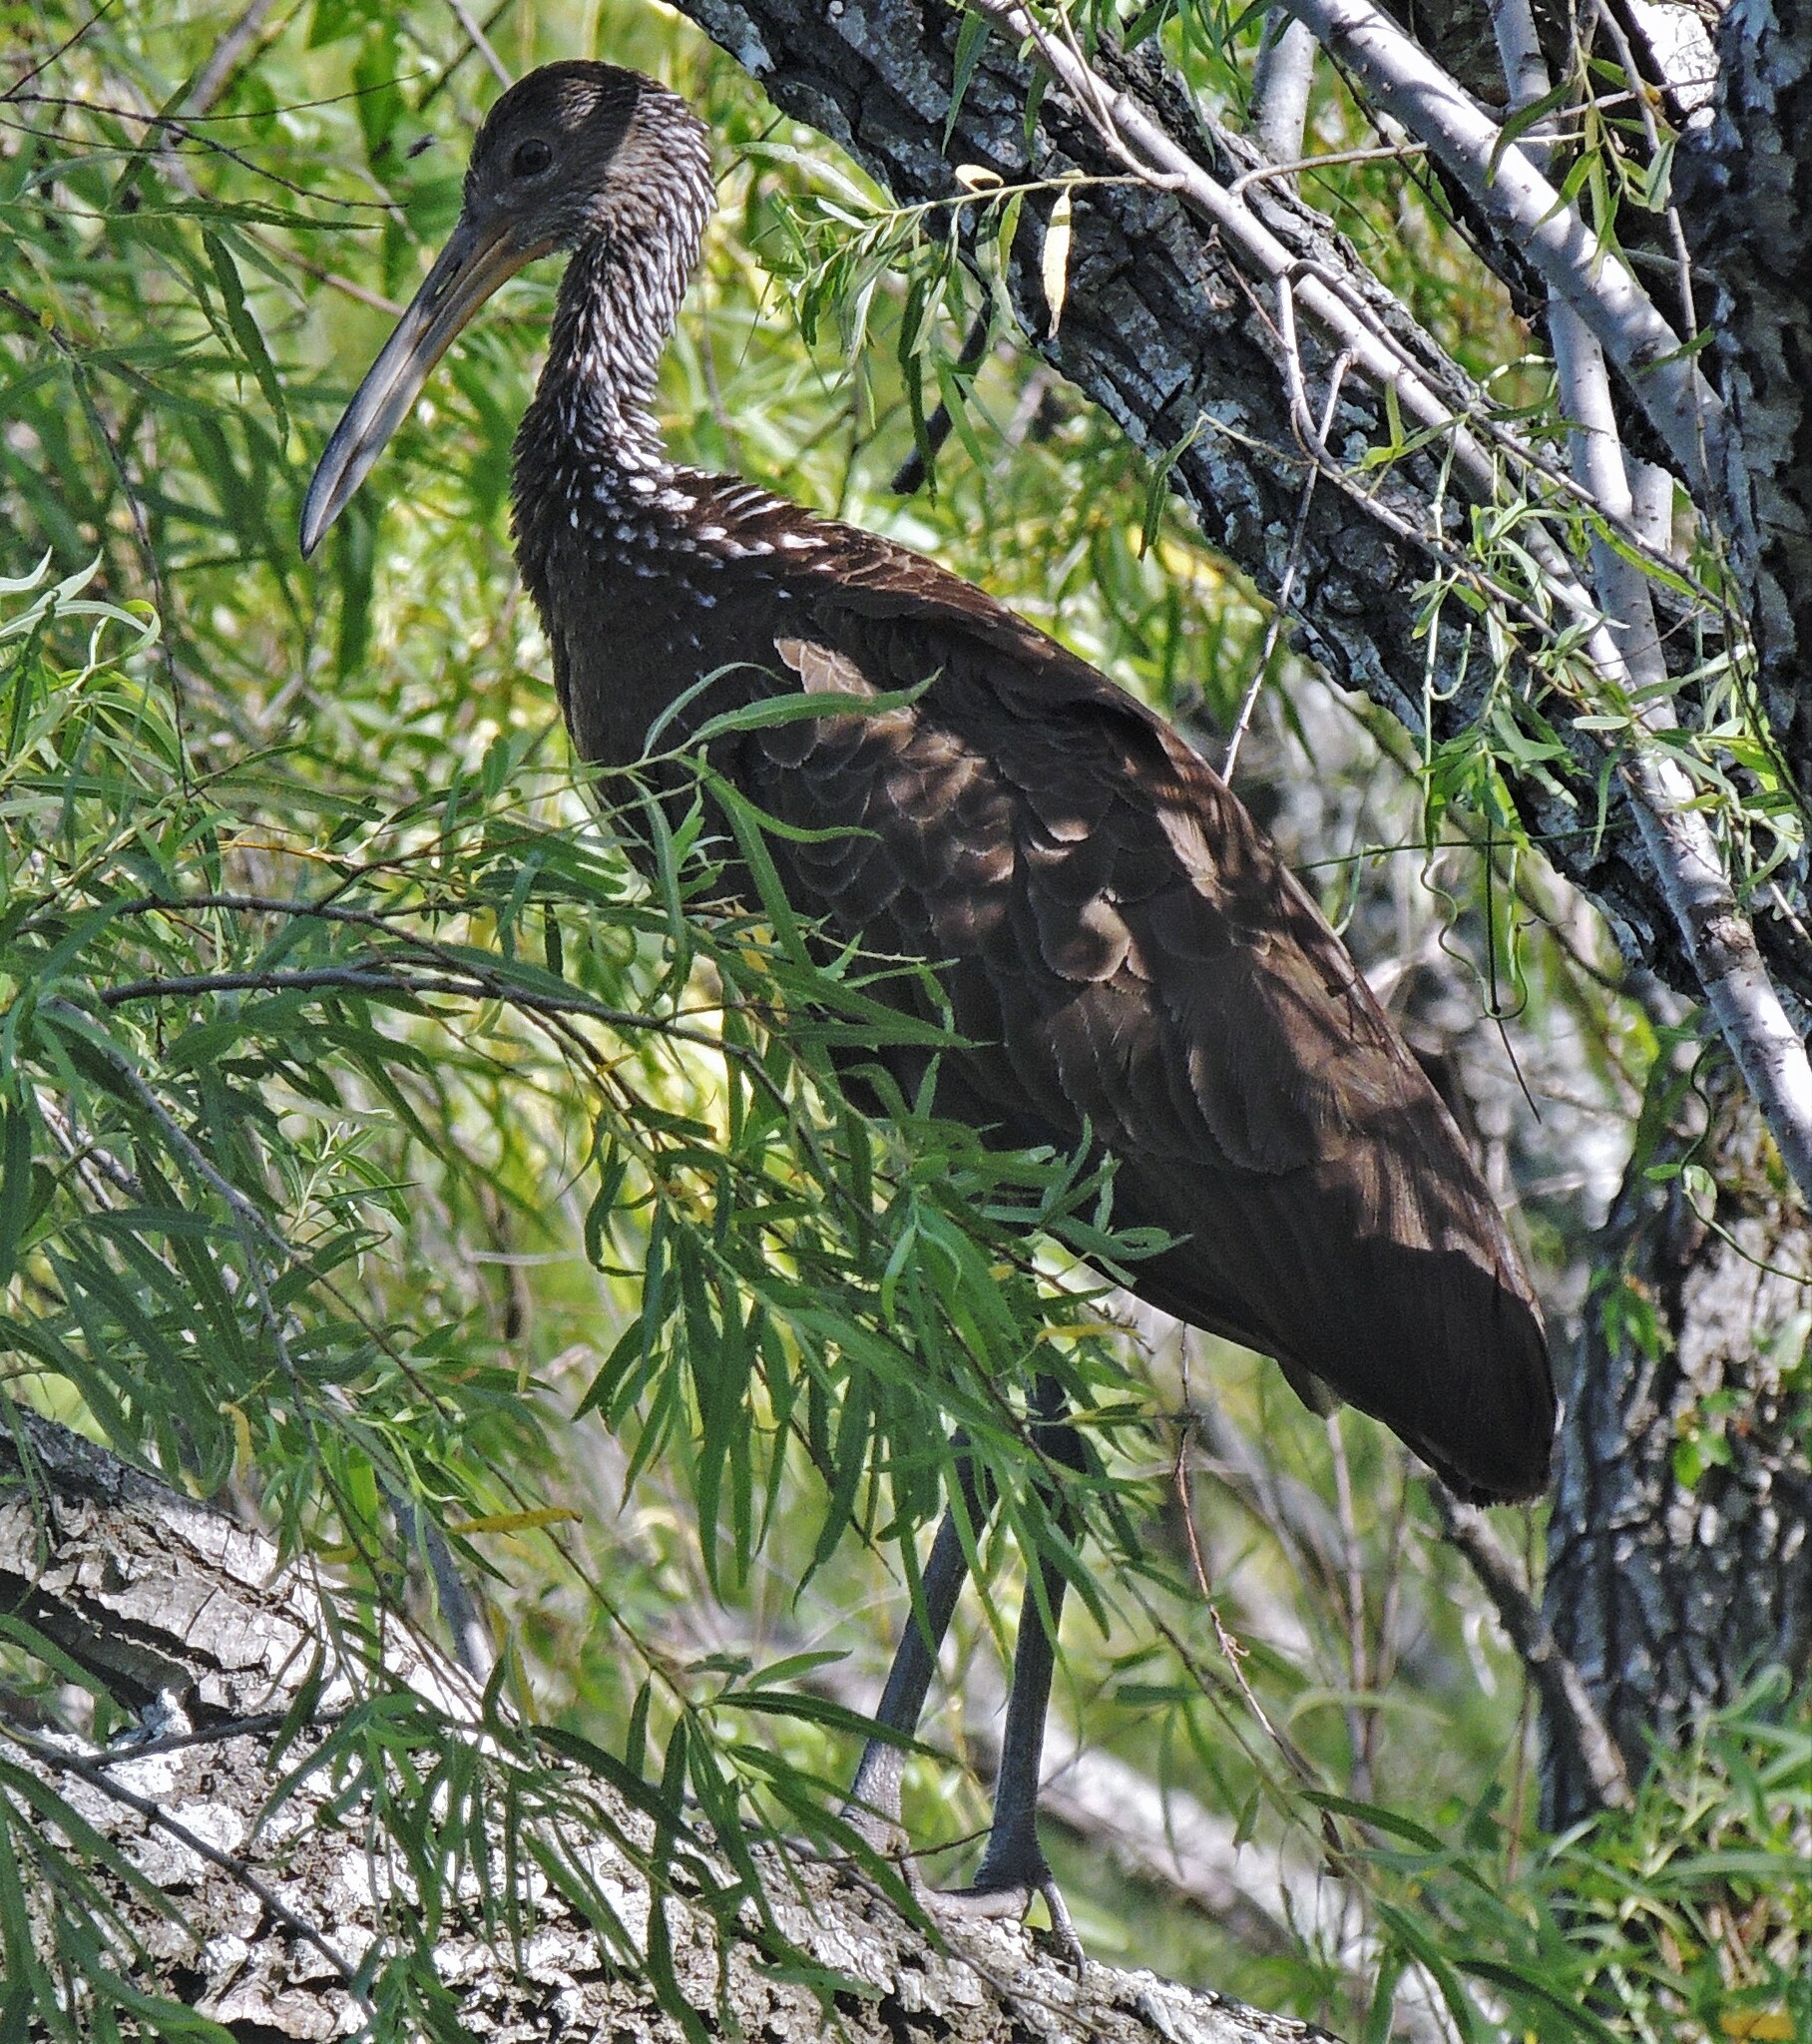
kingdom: Animalia
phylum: Chordata
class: Aves
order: Gruiformes
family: Aramidae
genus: Aramus
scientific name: Aramus guarauna
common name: Limpkin
